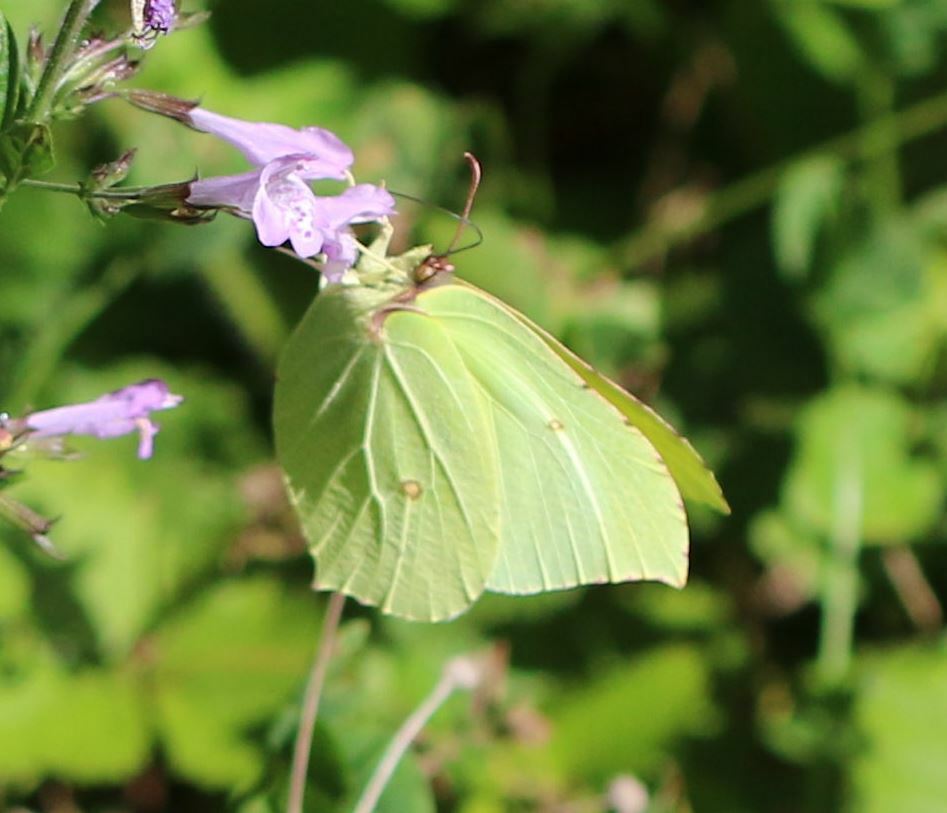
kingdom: Animalia
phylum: Arthropoda
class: Insecta
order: Lepidoptera
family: Pieridae
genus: Gonepteryx
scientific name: Gonepteryx rhamni
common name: Brimstone
